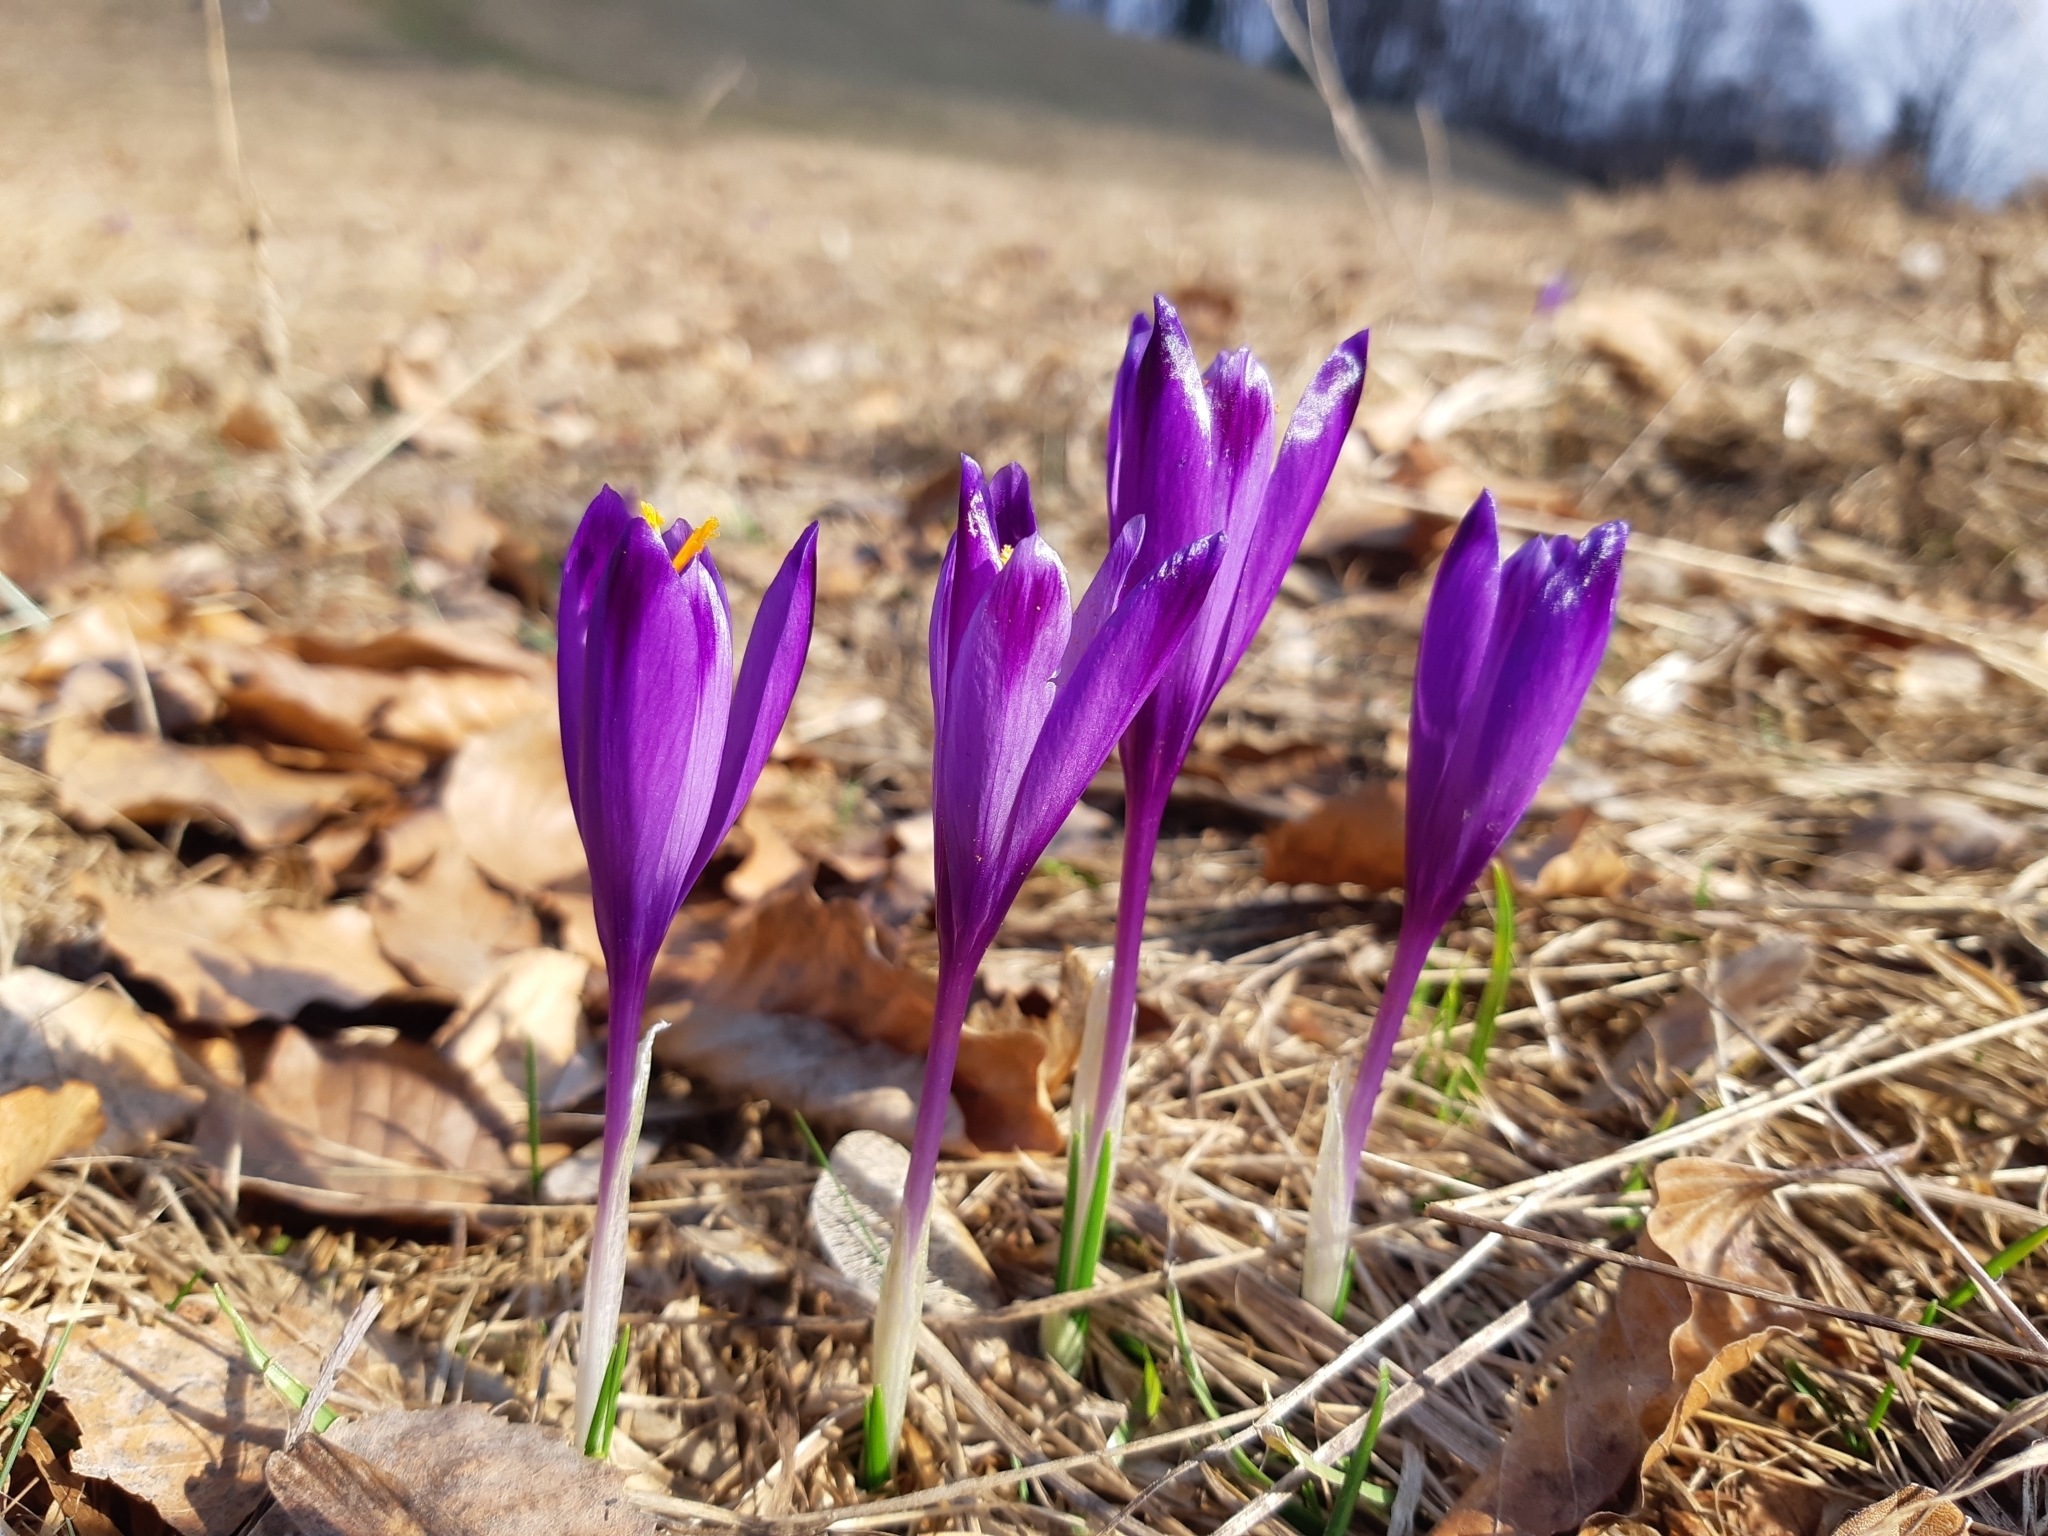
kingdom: Plantae
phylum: Tracheophyta
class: Liliopsida
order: Asparagales
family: Iridaceae
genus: Crocus
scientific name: Crocus heuffelianus
